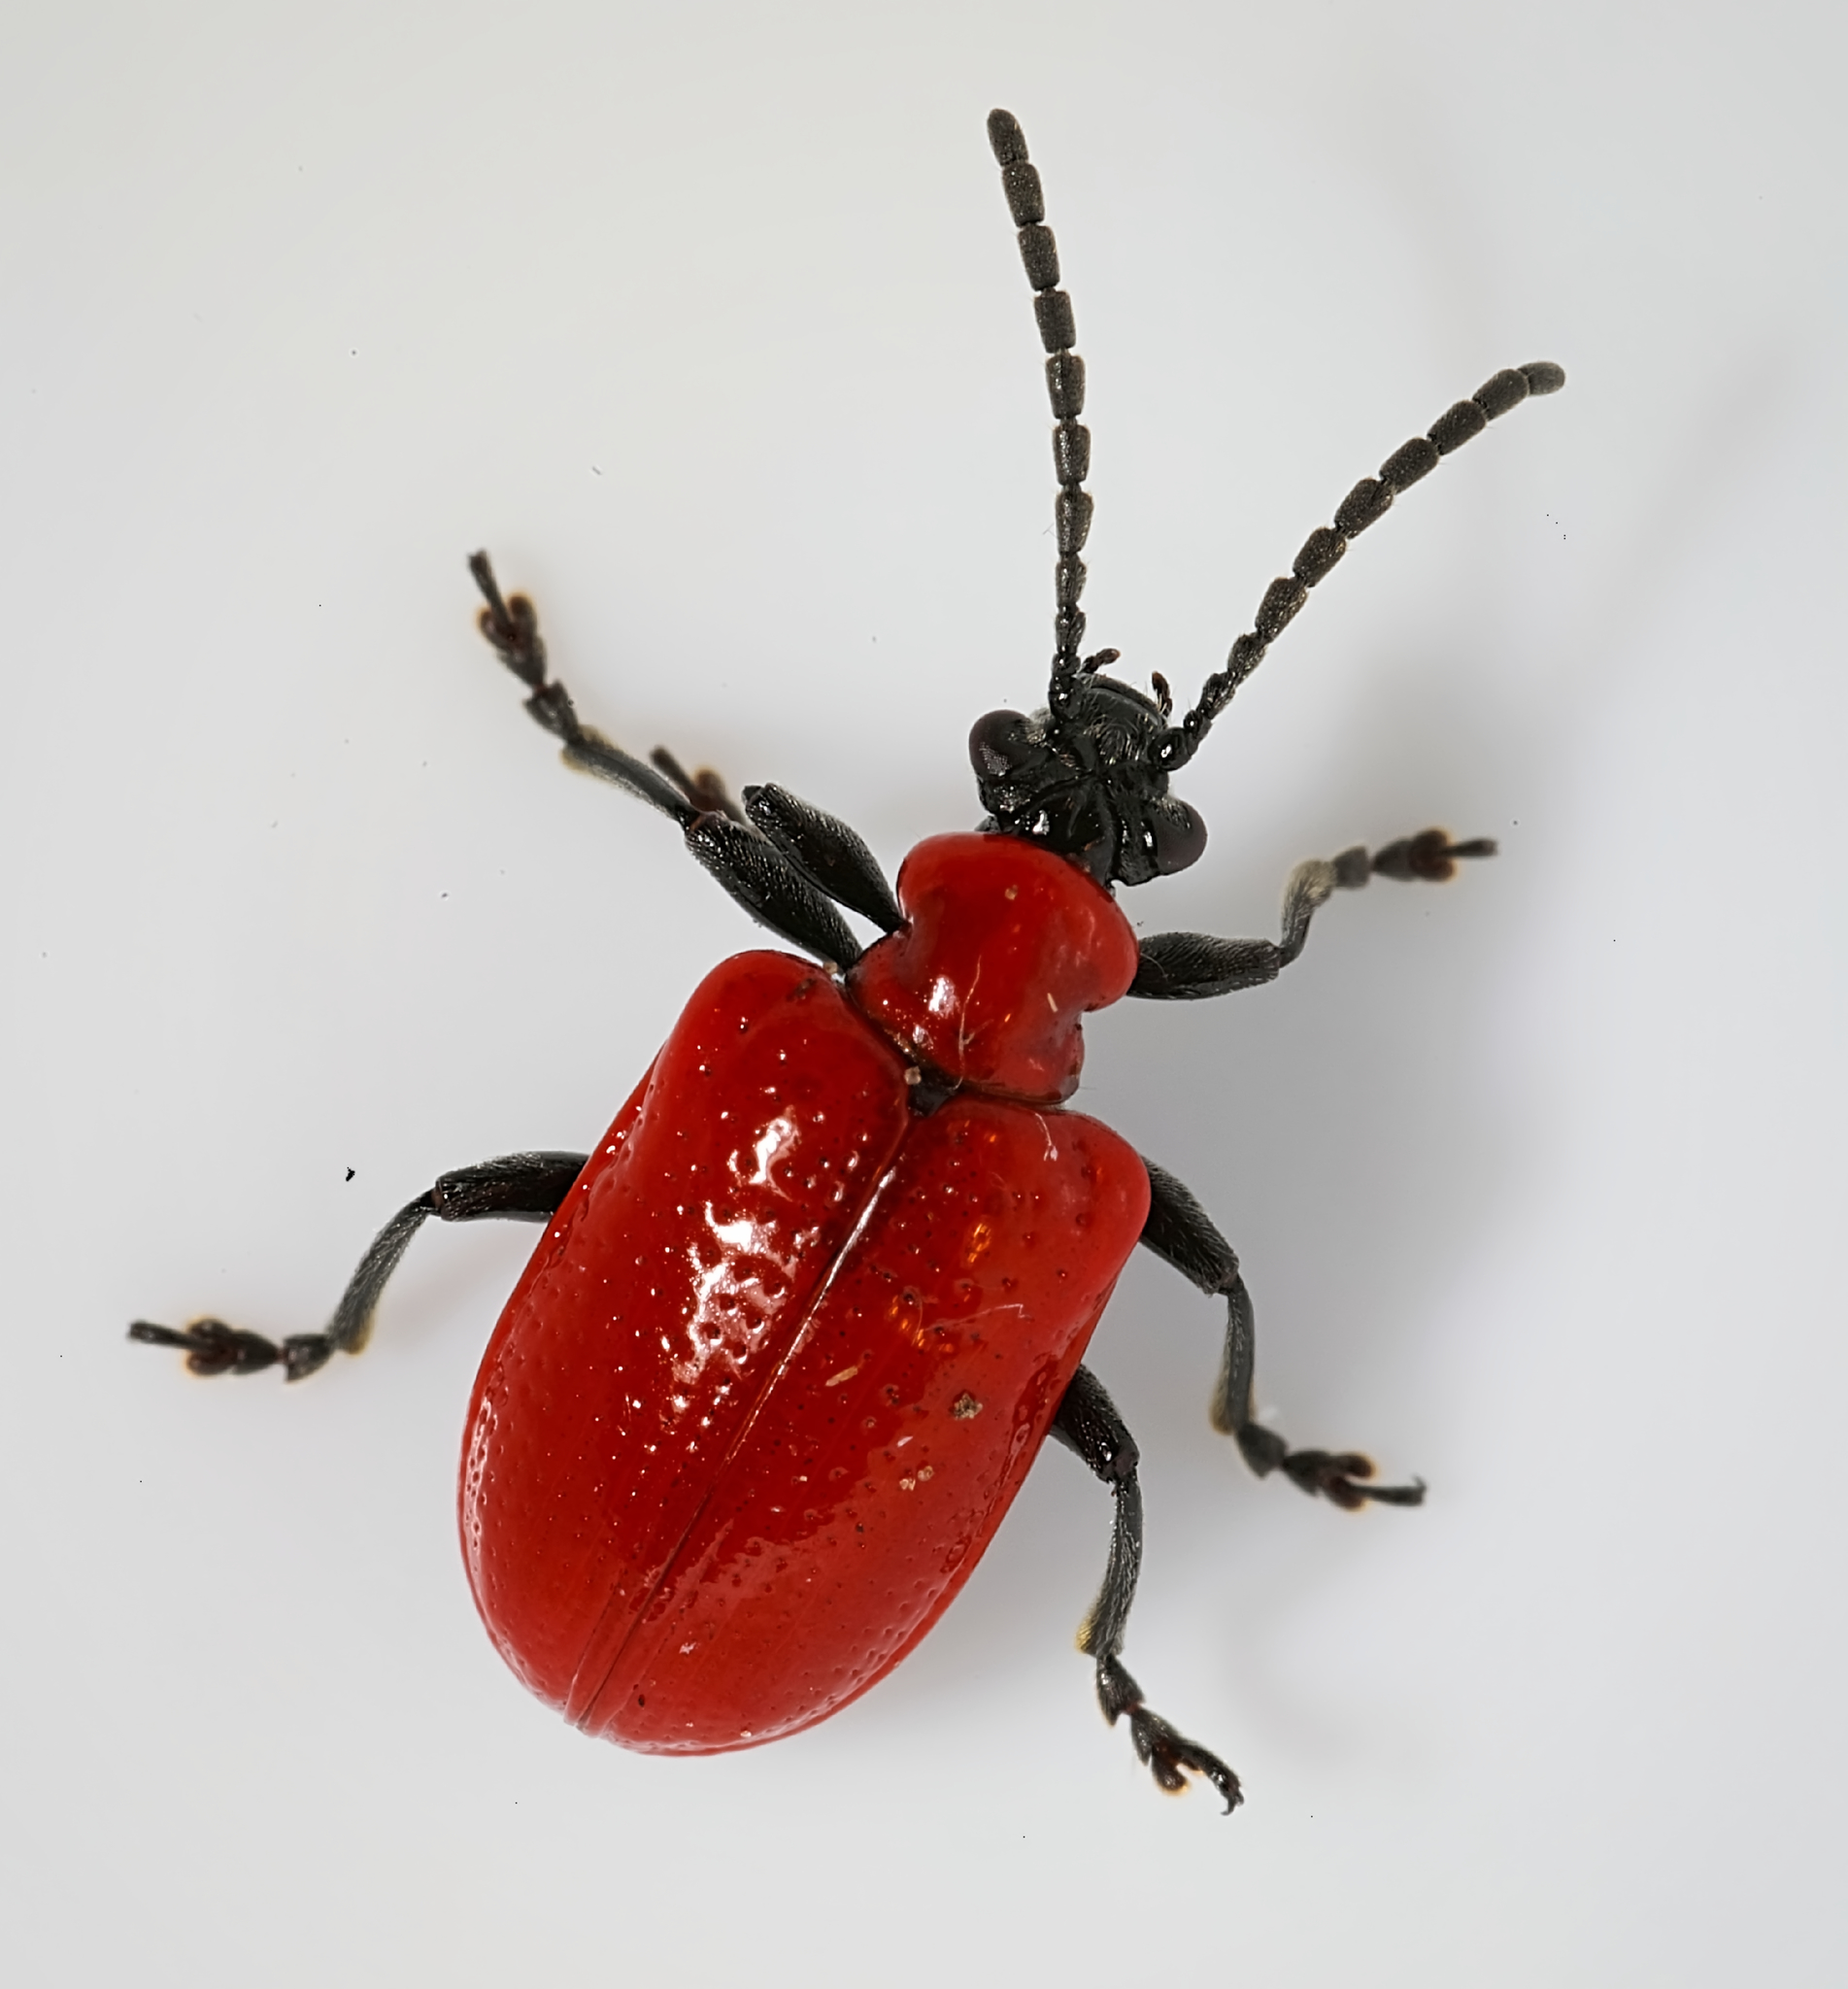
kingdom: Animalia
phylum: Arthropoda
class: Insecta
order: Coleoptera
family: Chrysomelidae
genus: Lilioceris
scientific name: Lilioceris lilii
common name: Lily beetle
